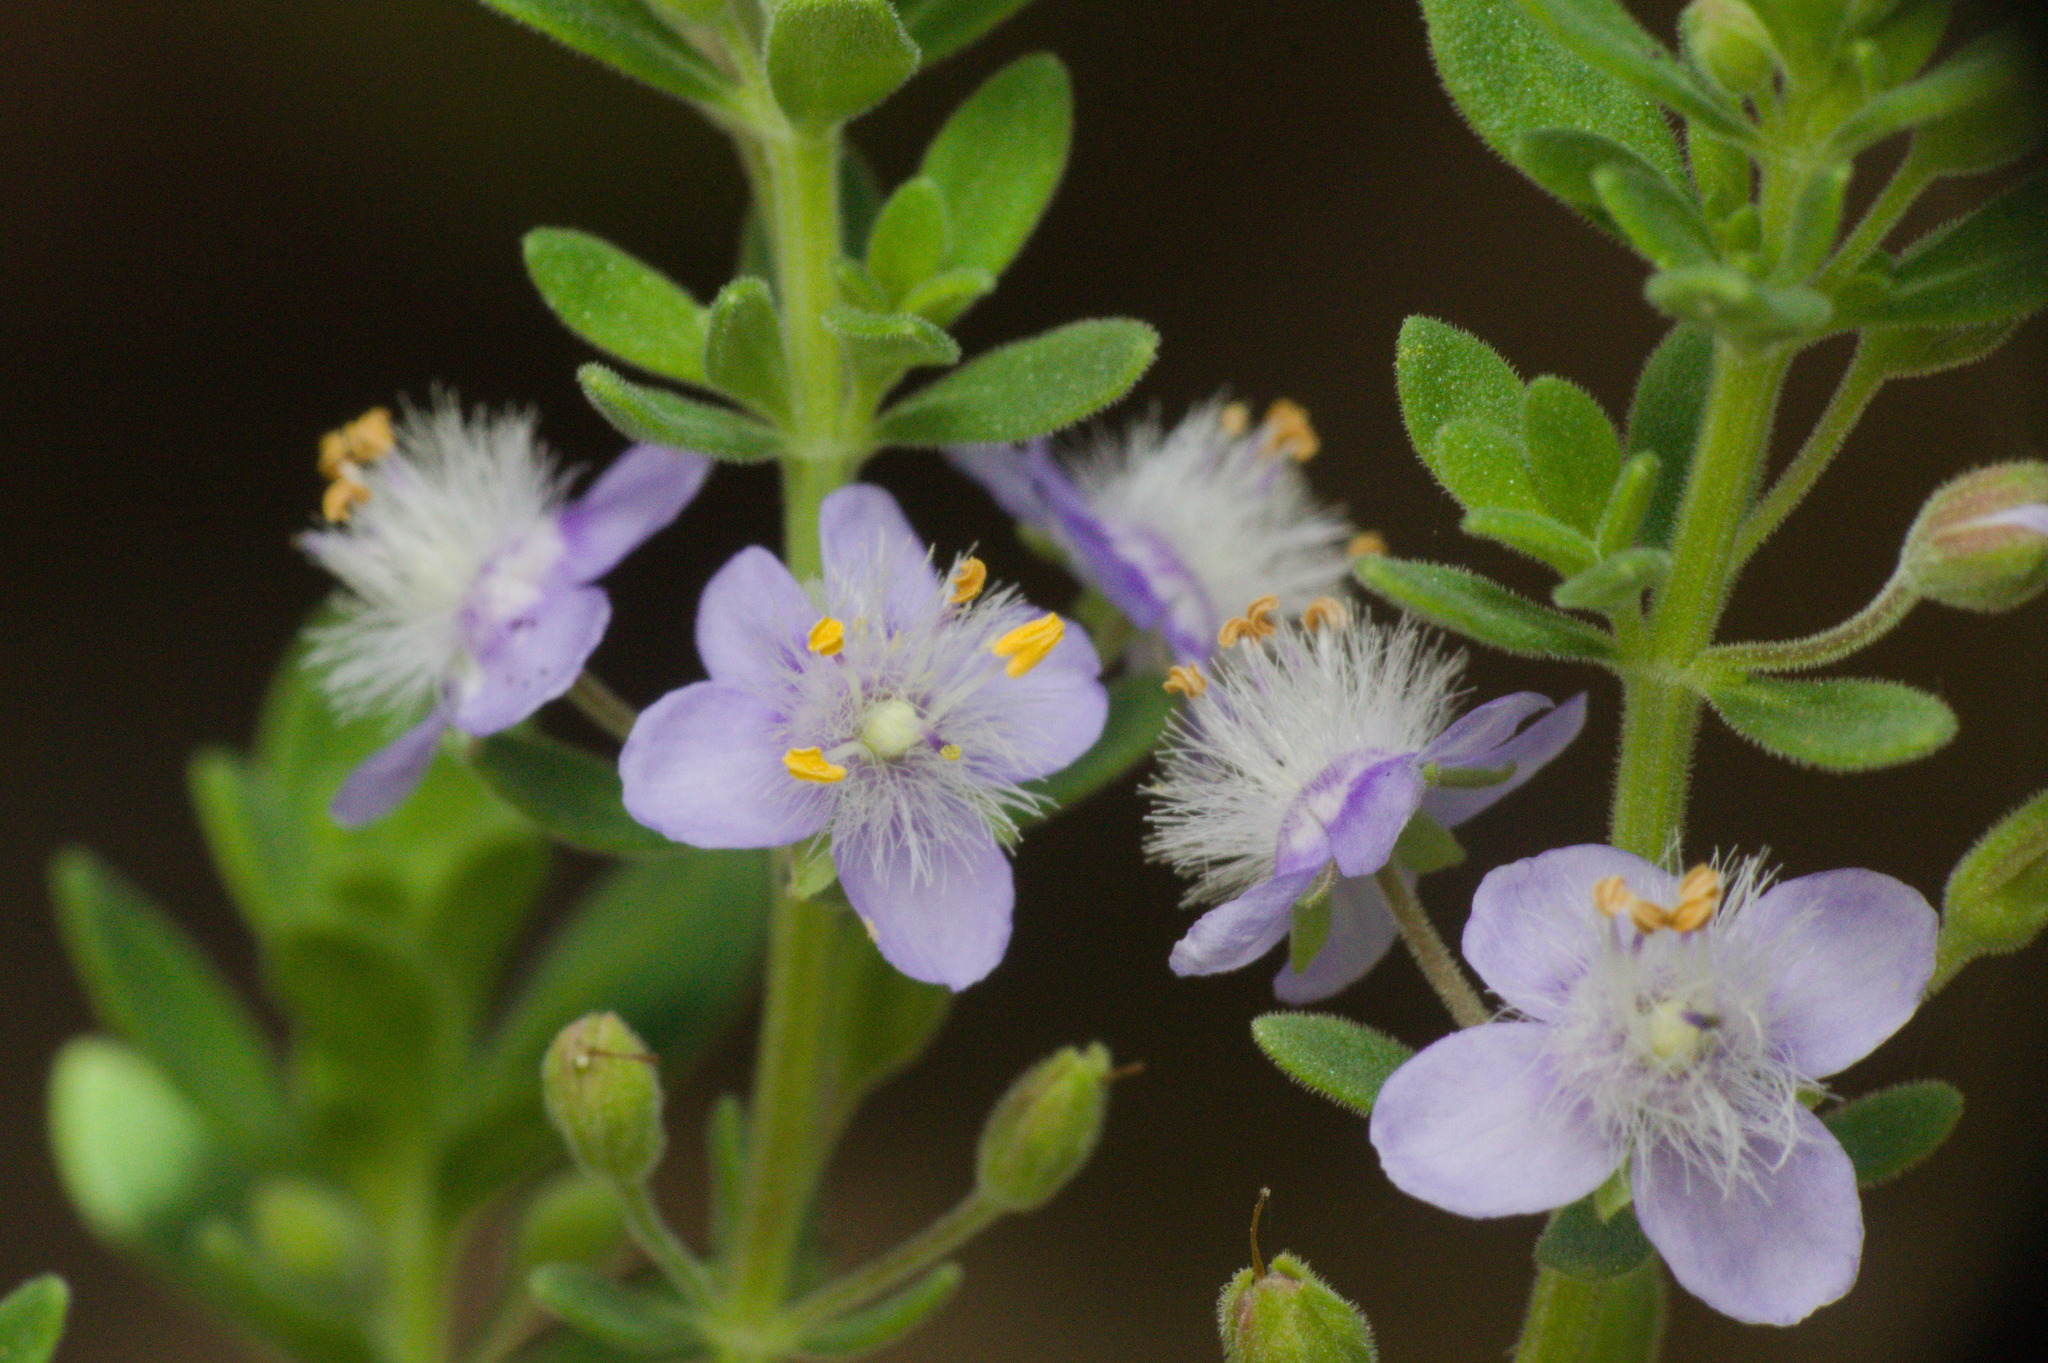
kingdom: Plantae
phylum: Tracheophyta
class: Magnoliopsida
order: Lamiales
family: Plantaginaceae
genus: Scoparia
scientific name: Scoparia ericacea
